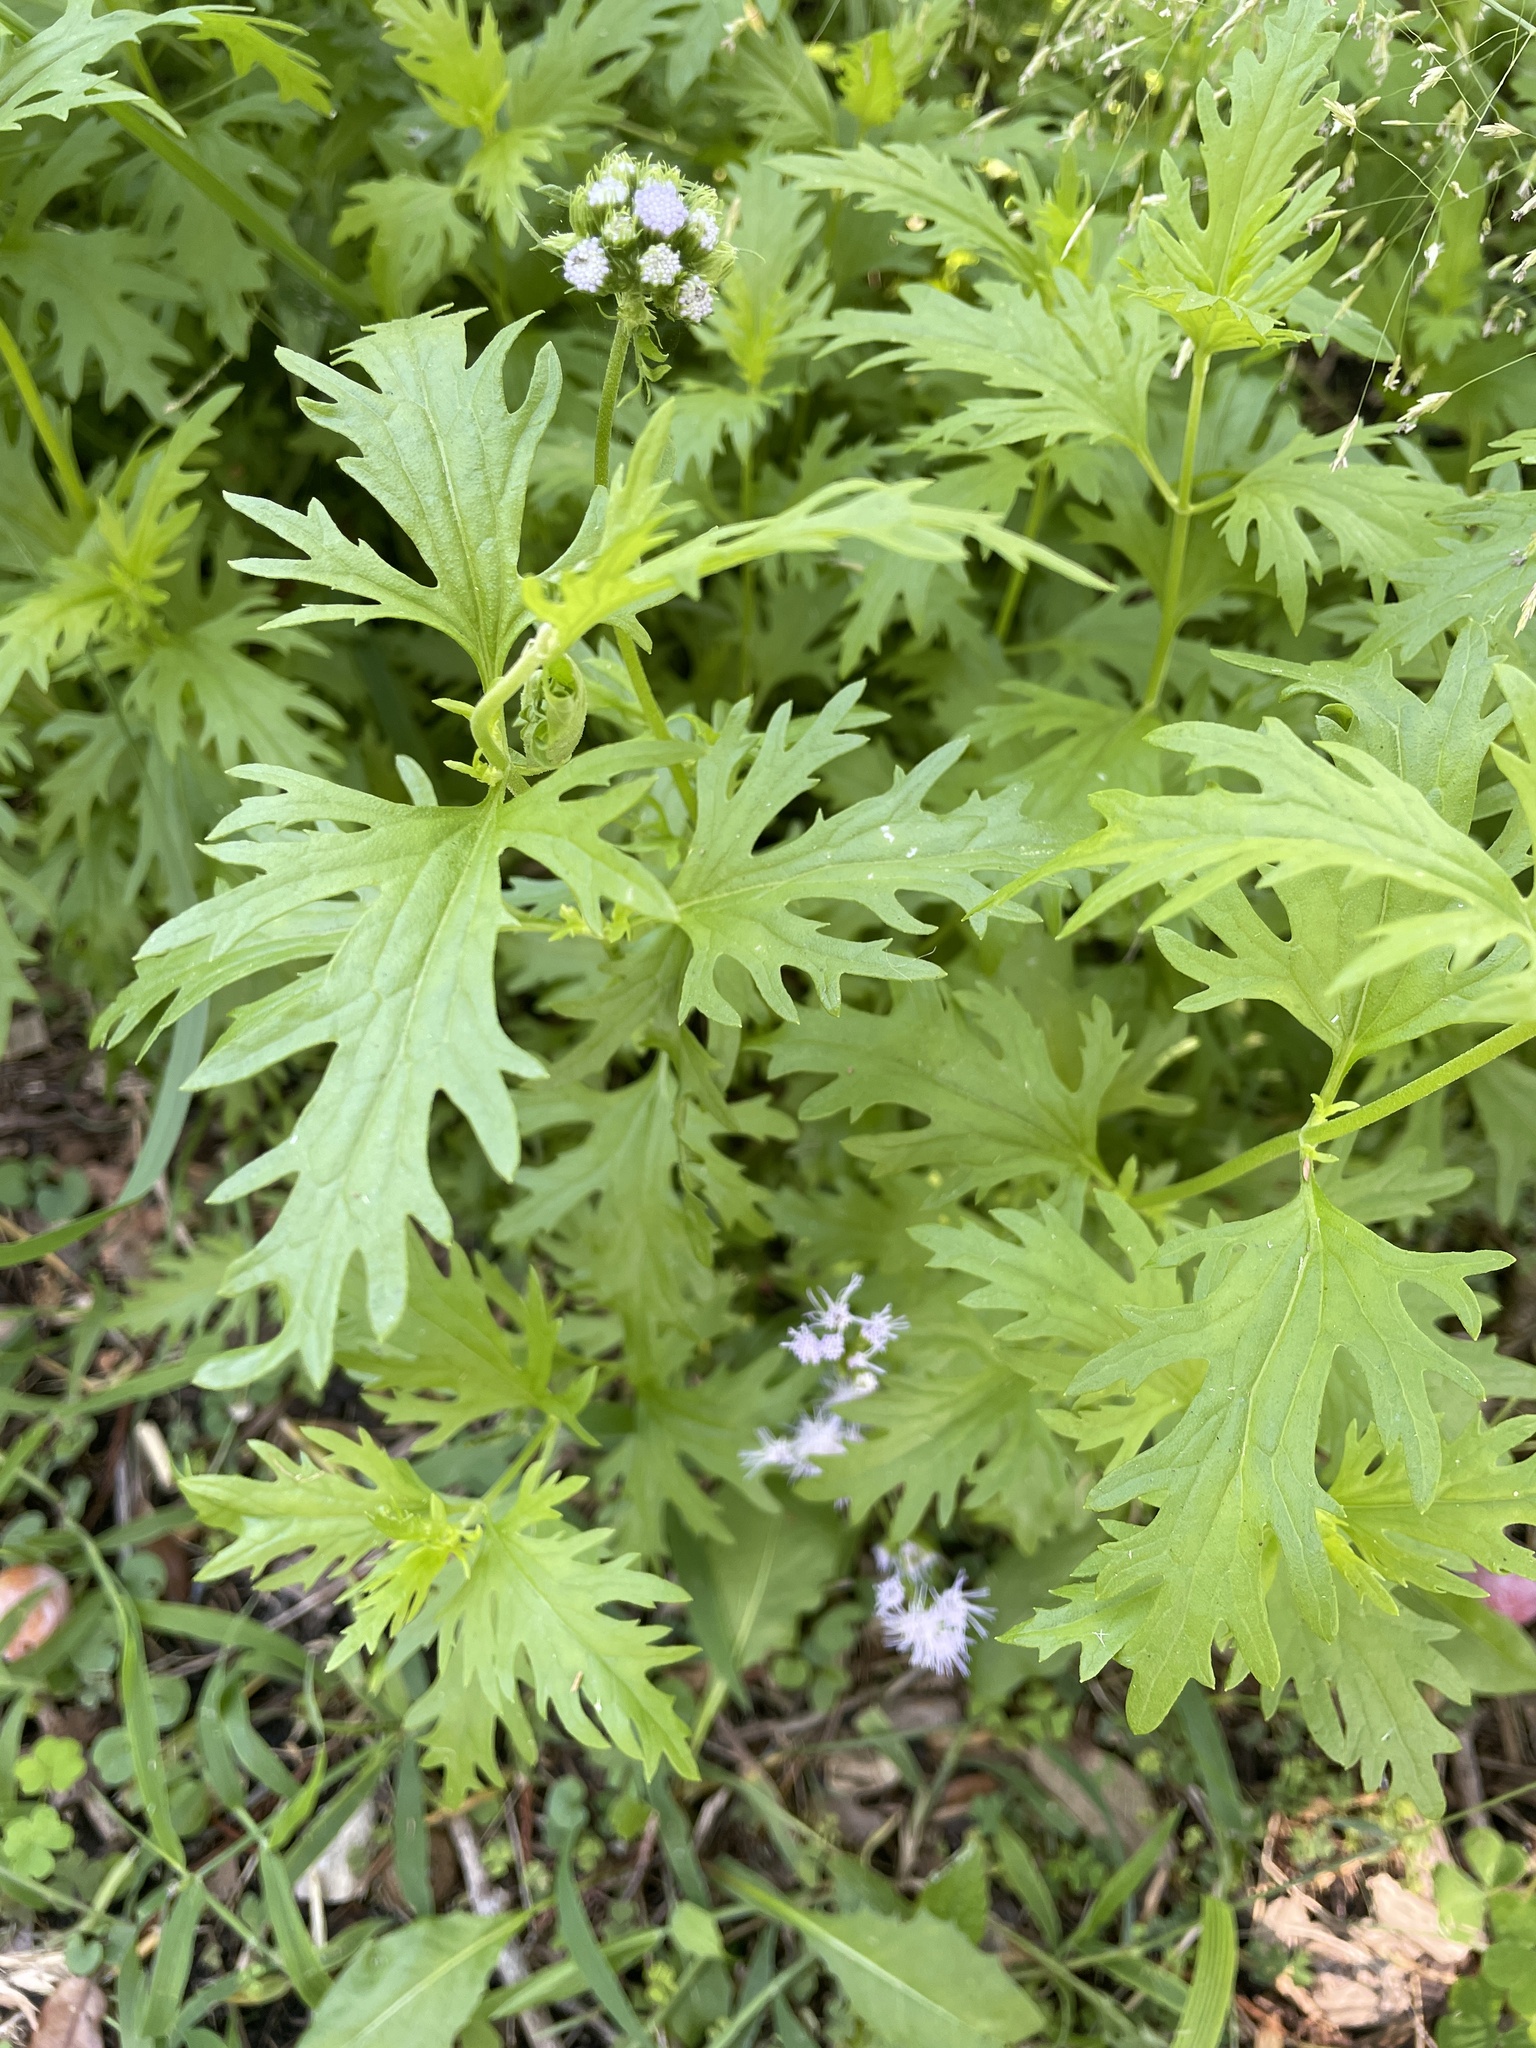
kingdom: Plantae
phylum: Tracheophyta
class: Magnoliopsida
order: Asterales
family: Asteraceae
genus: Conoclinium
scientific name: Conoclinium dissectum
